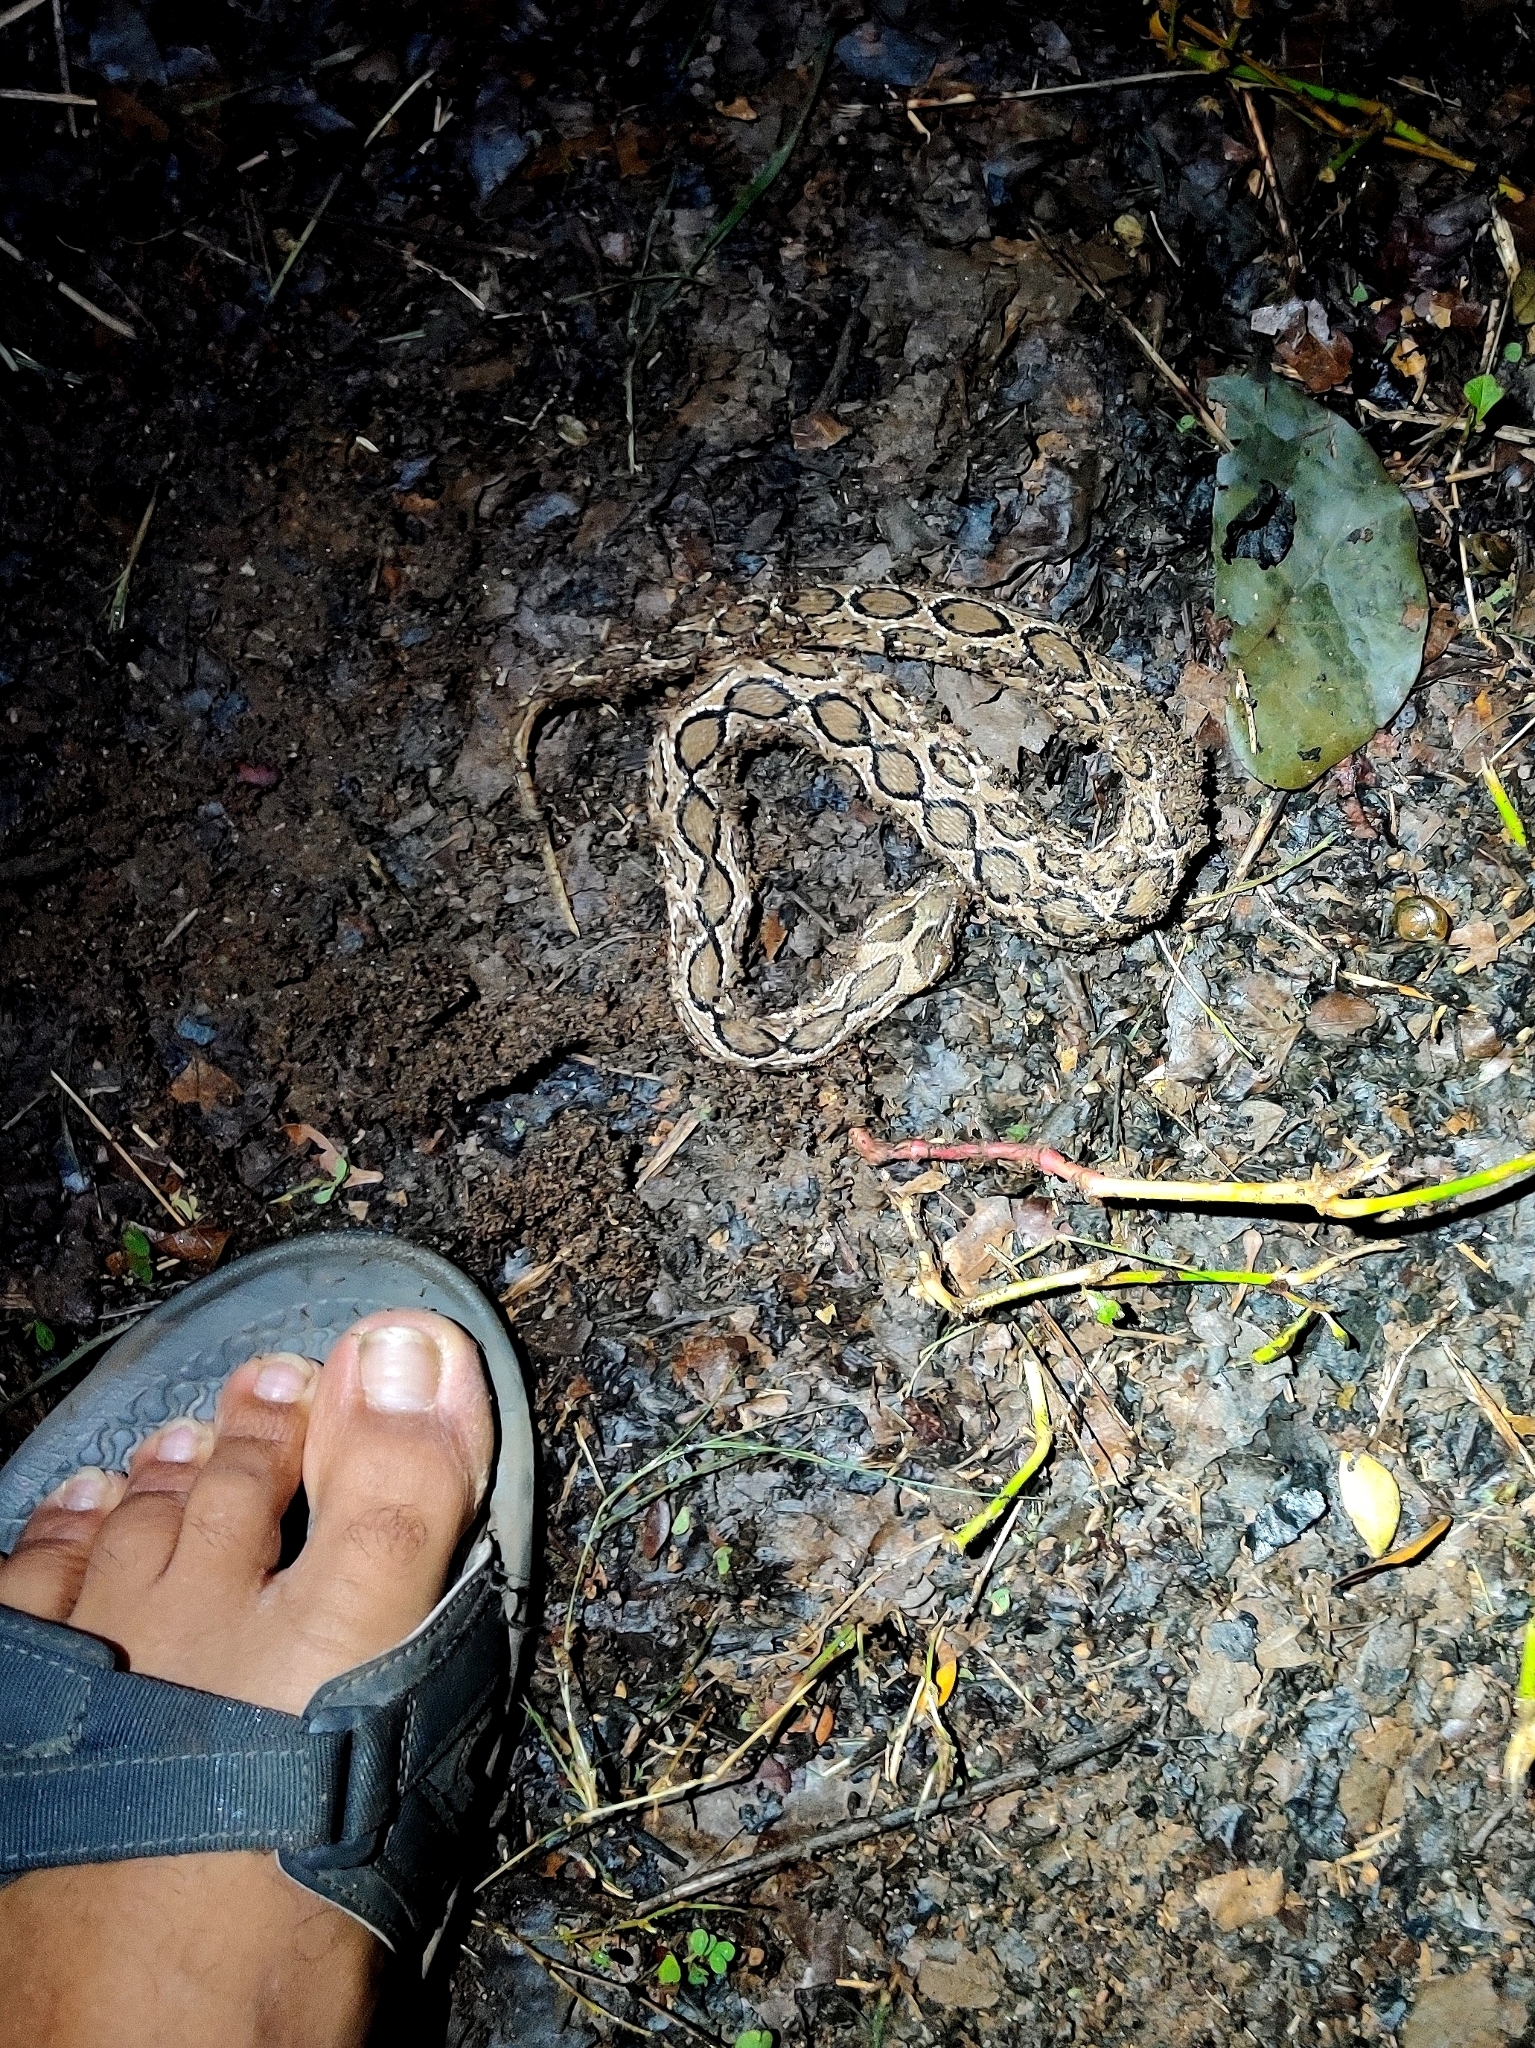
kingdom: Animalia
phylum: Chordata
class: Squamata
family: Viperidae
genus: Daboia
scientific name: Daboia russelii
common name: Western russel’s viper
